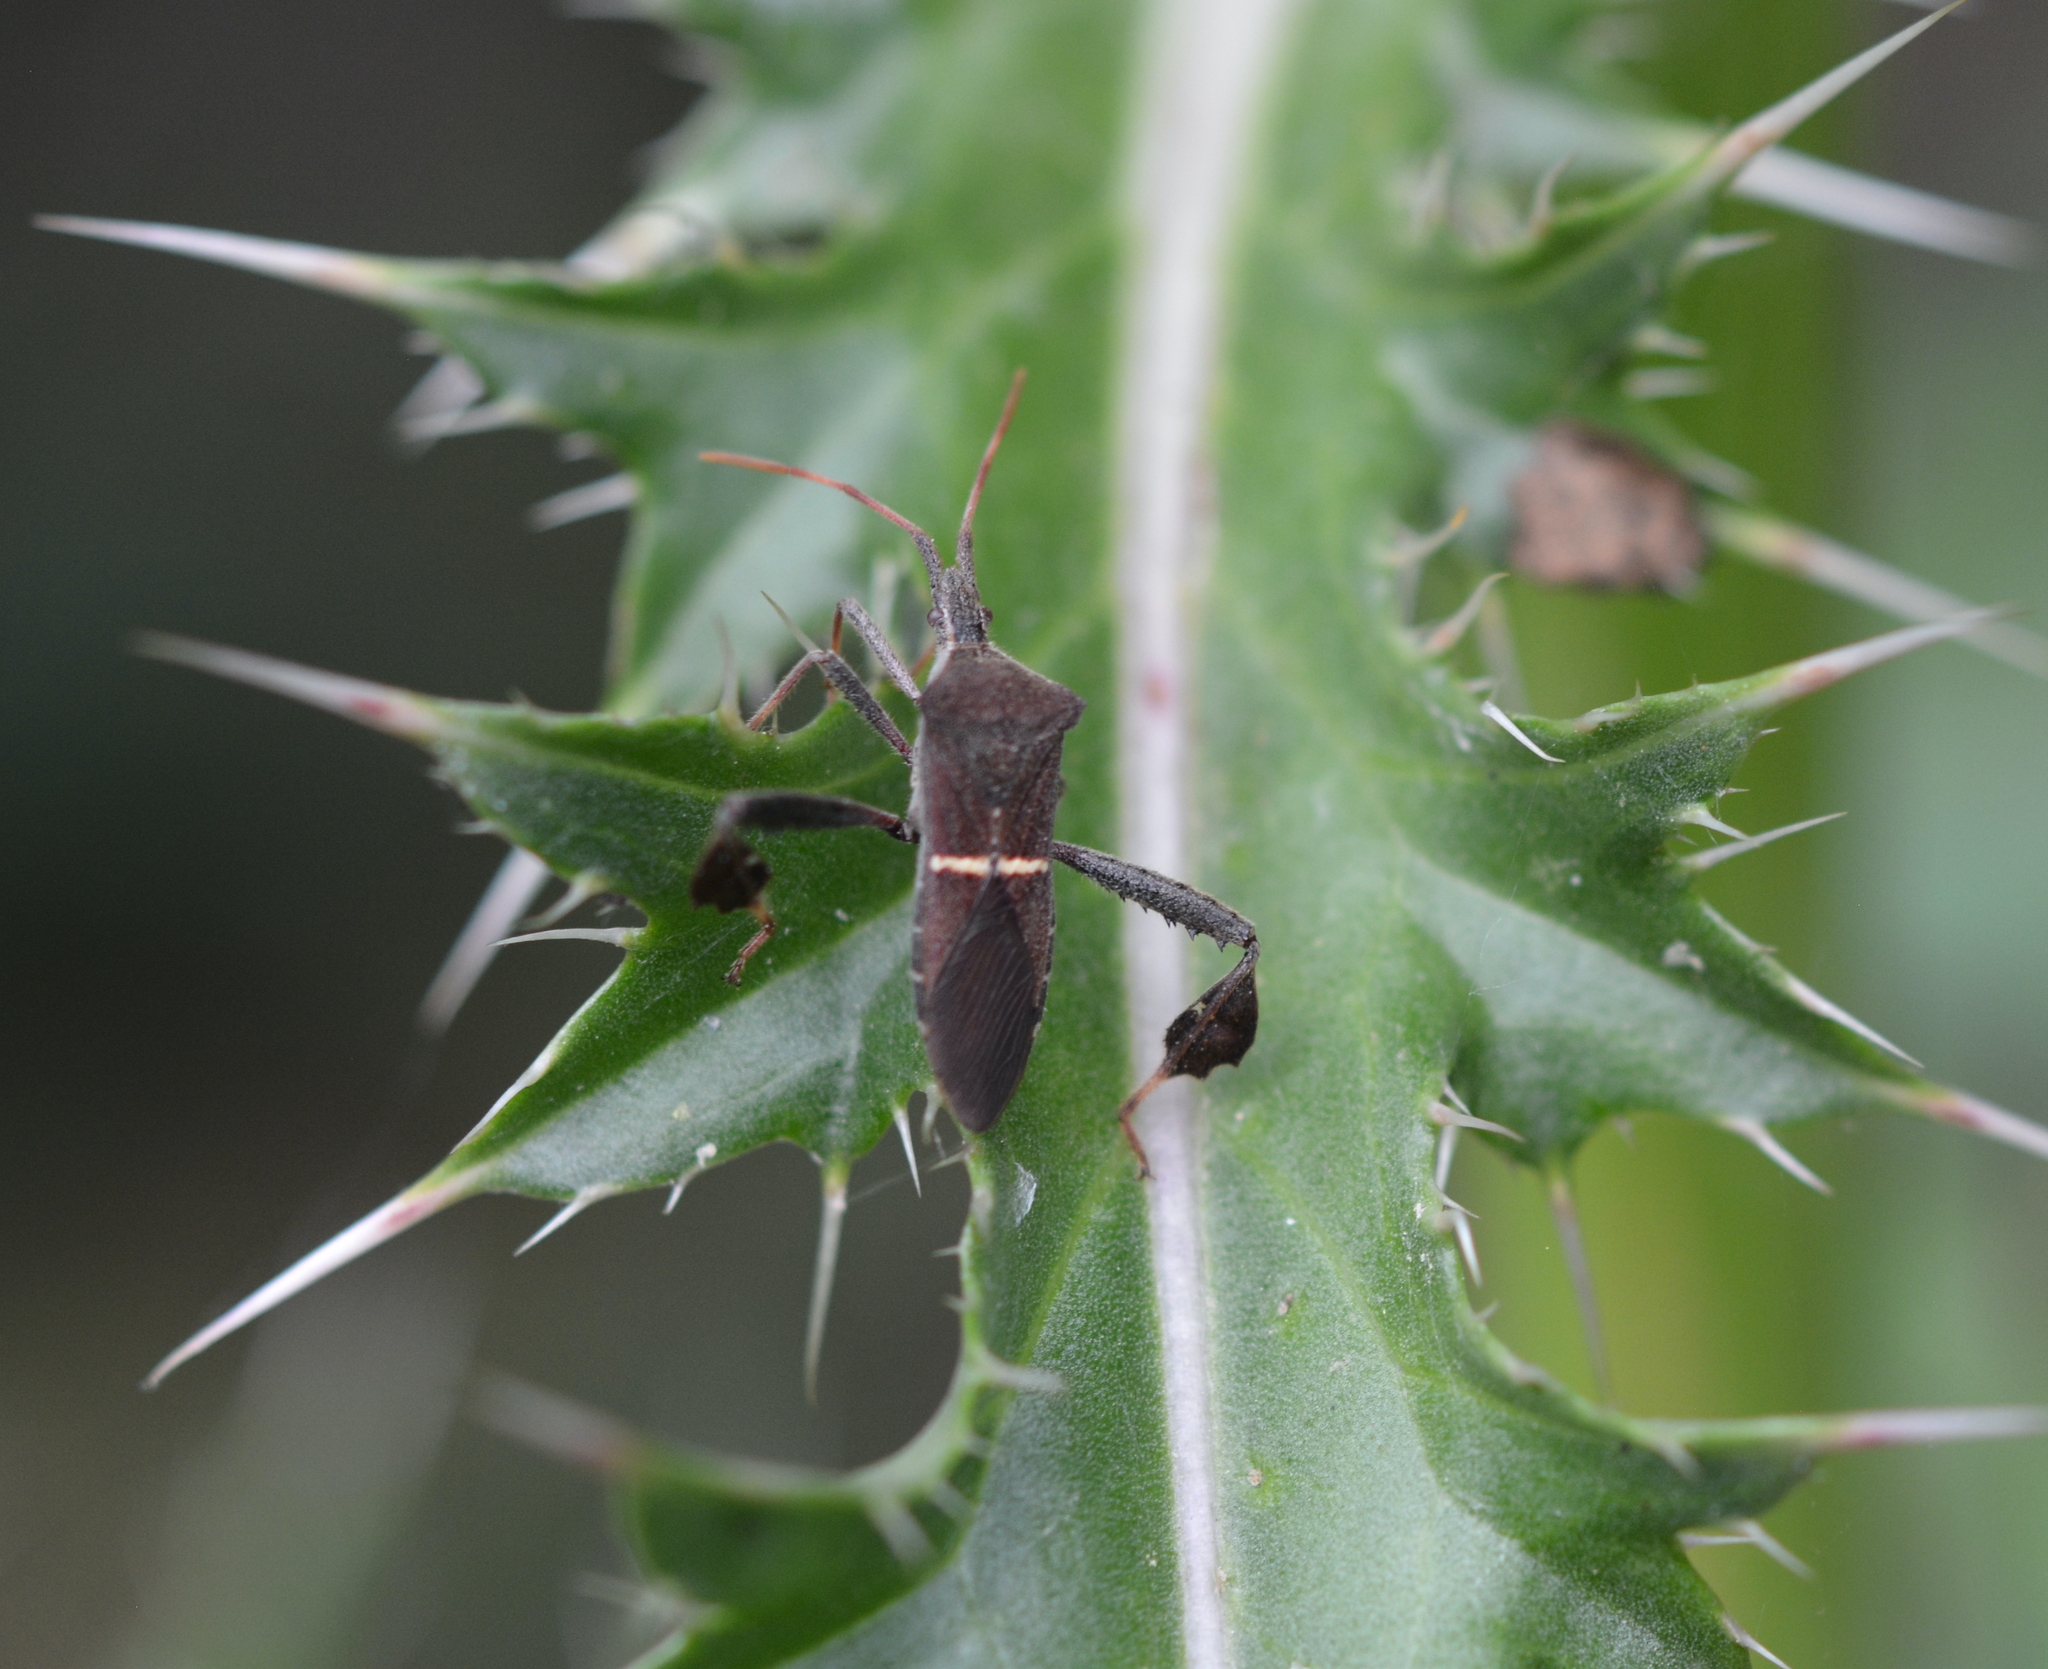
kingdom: Animalia
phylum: Arthropoda
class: Insecta
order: Hemiptera
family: Coreidae
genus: Leptoglossus
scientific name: Leptoglossus phyllopus
